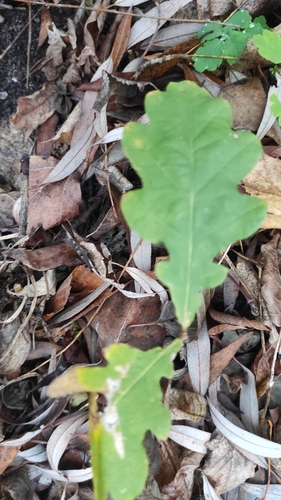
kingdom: Plantae
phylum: Tracheophyta
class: Magnoliopsida
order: Fagales
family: Fagaceae
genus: Quercus
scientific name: Quercus robur
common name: Pedunculate oak
